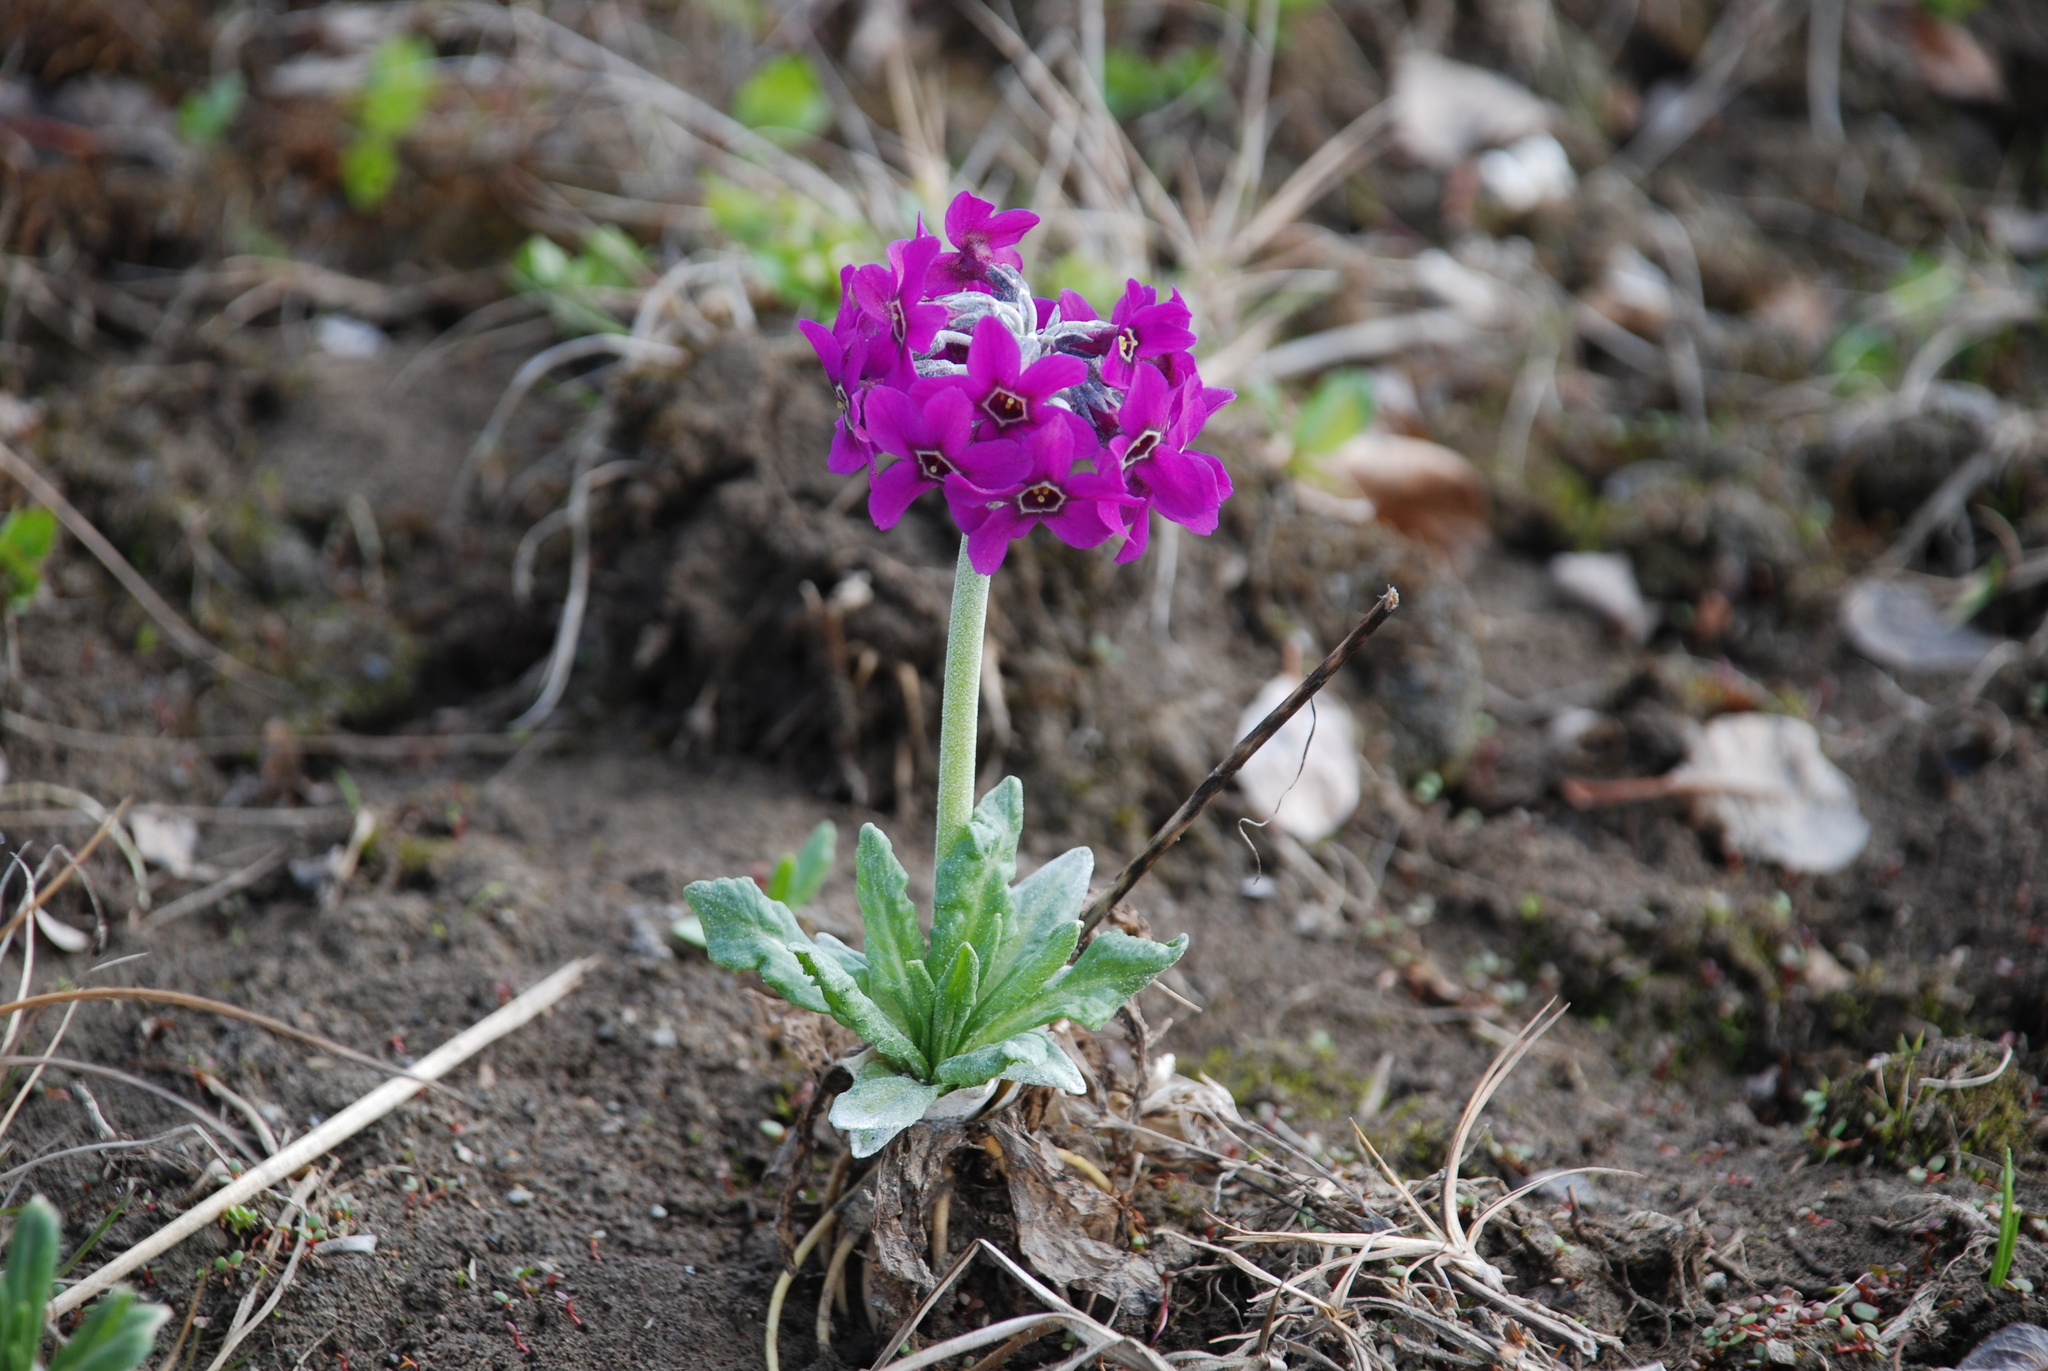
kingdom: Plantae
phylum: Tracheophyta
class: Magnoliopsida
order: Ericales
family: Primulaceae
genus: Primula
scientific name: Primula pumila
